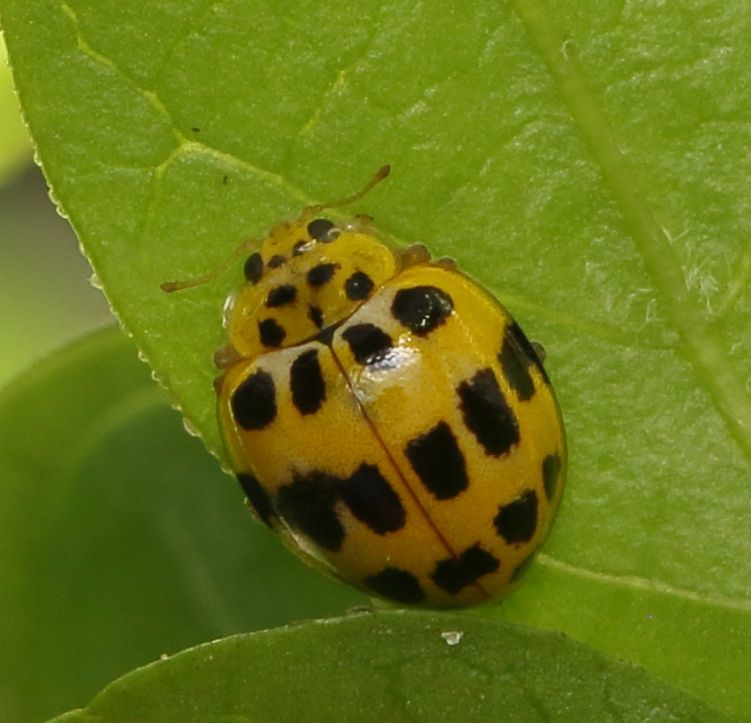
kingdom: Animalia
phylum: Arthropoda
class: Insecta
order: Coleoptera
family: Coccinellidae
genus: Psyllobora
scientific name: Psyllobora variegata
